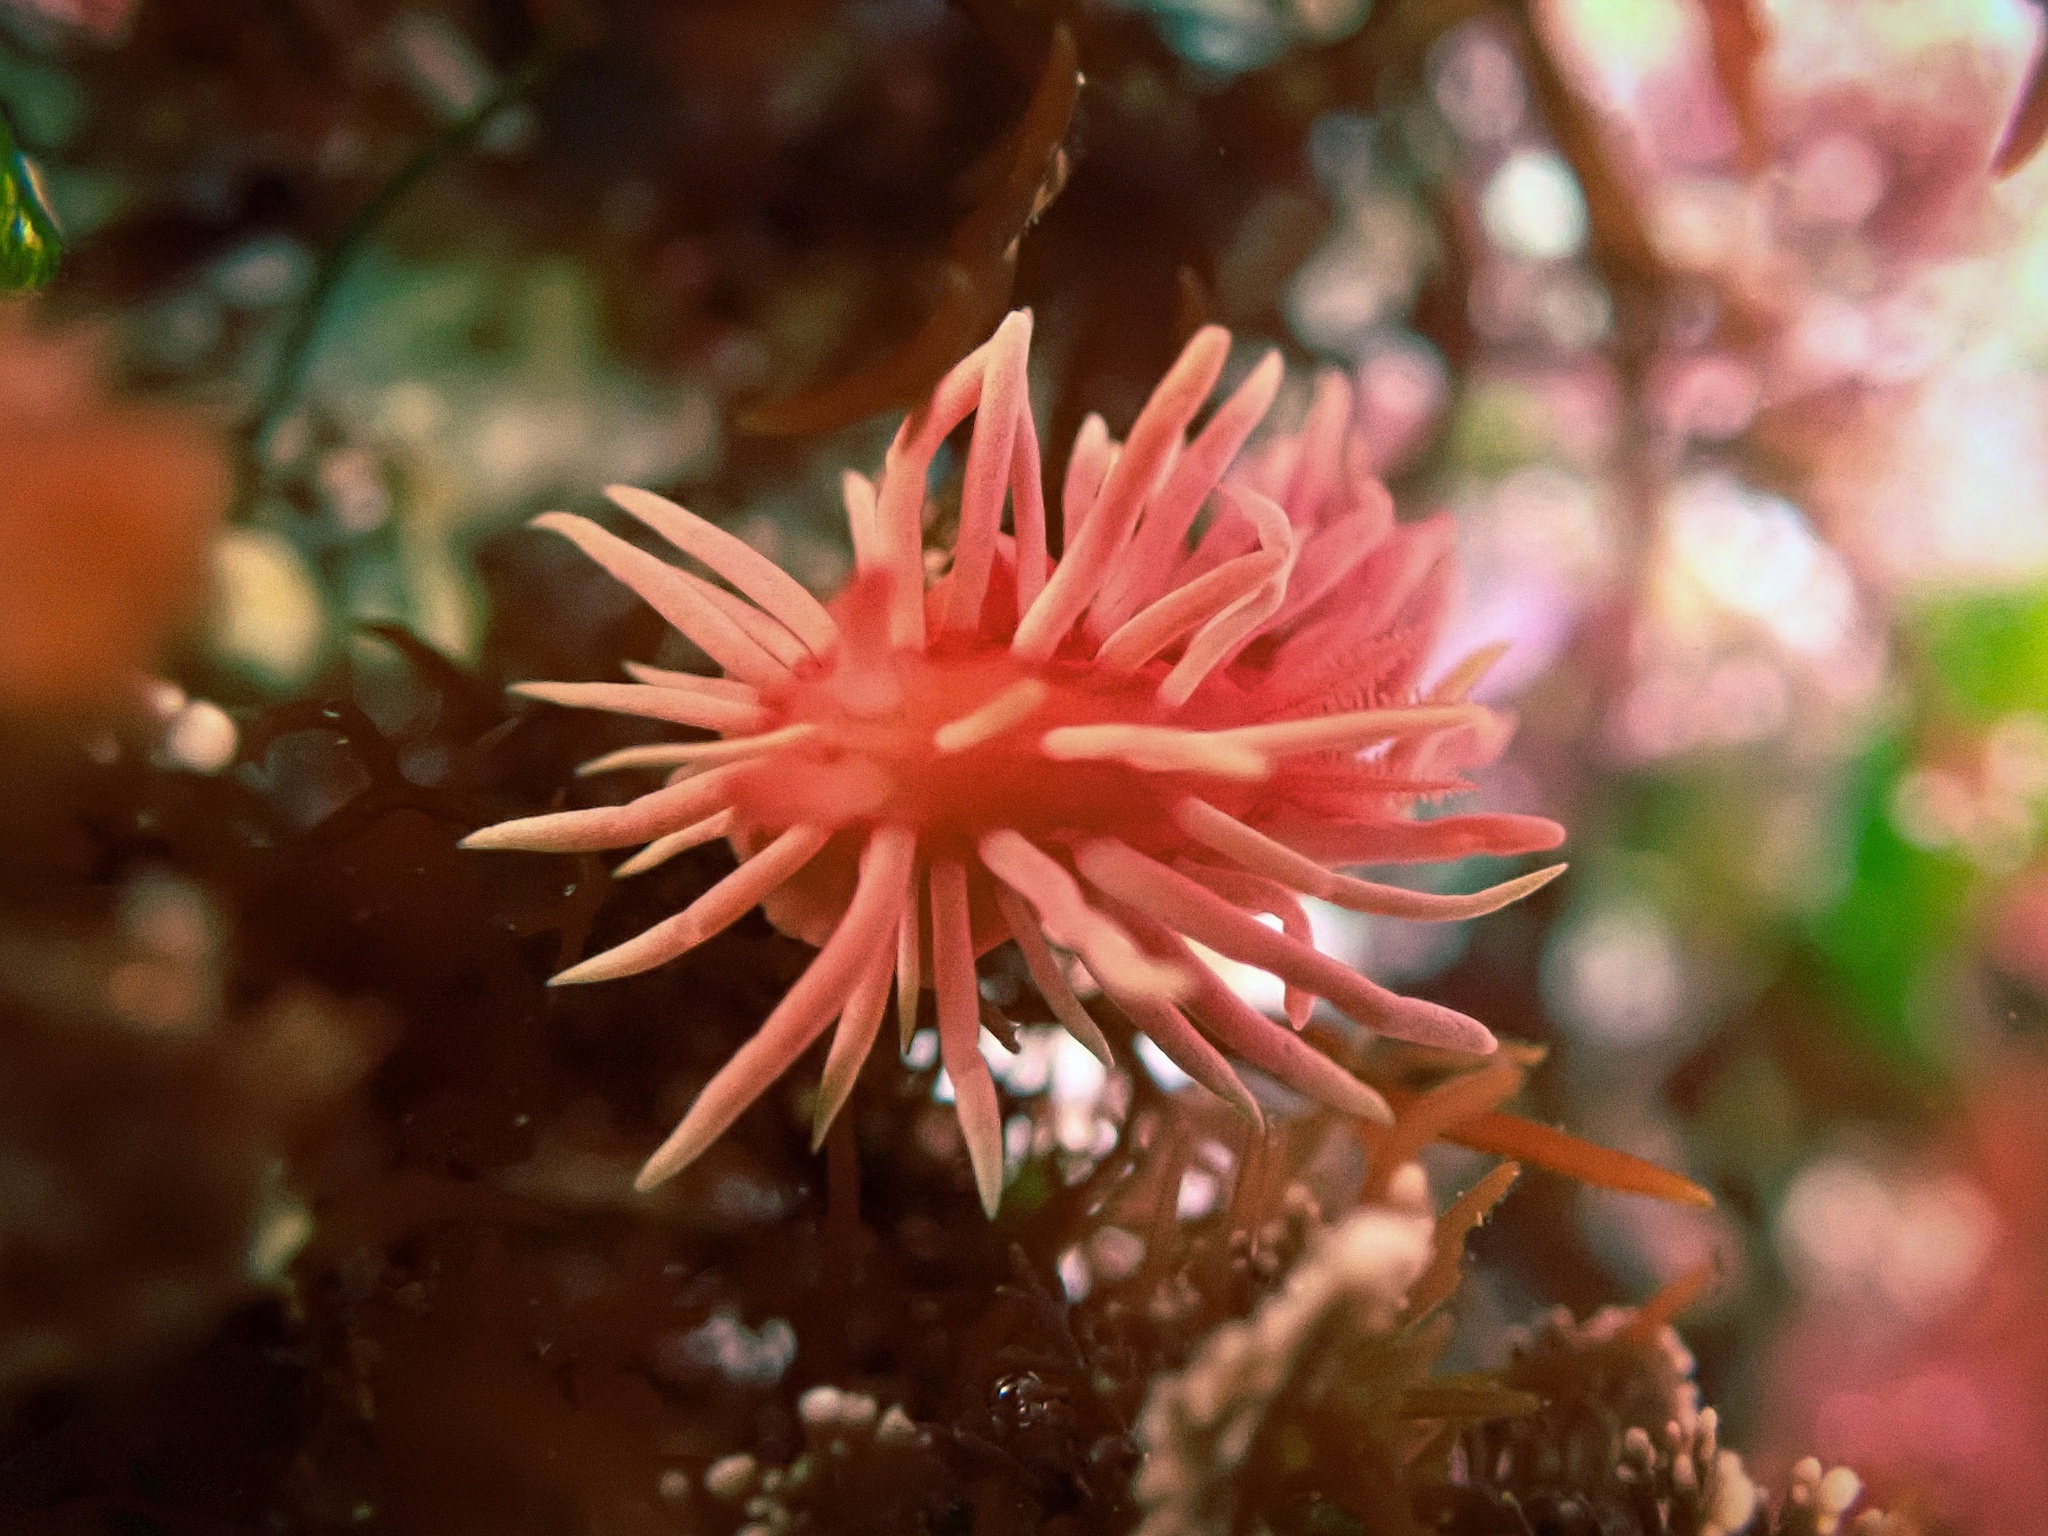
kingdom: Animalia
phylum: Mollusca
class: Gastropoda
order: Nudibranchia
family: Goniodorididae
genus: Okenia
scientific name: Okenia
